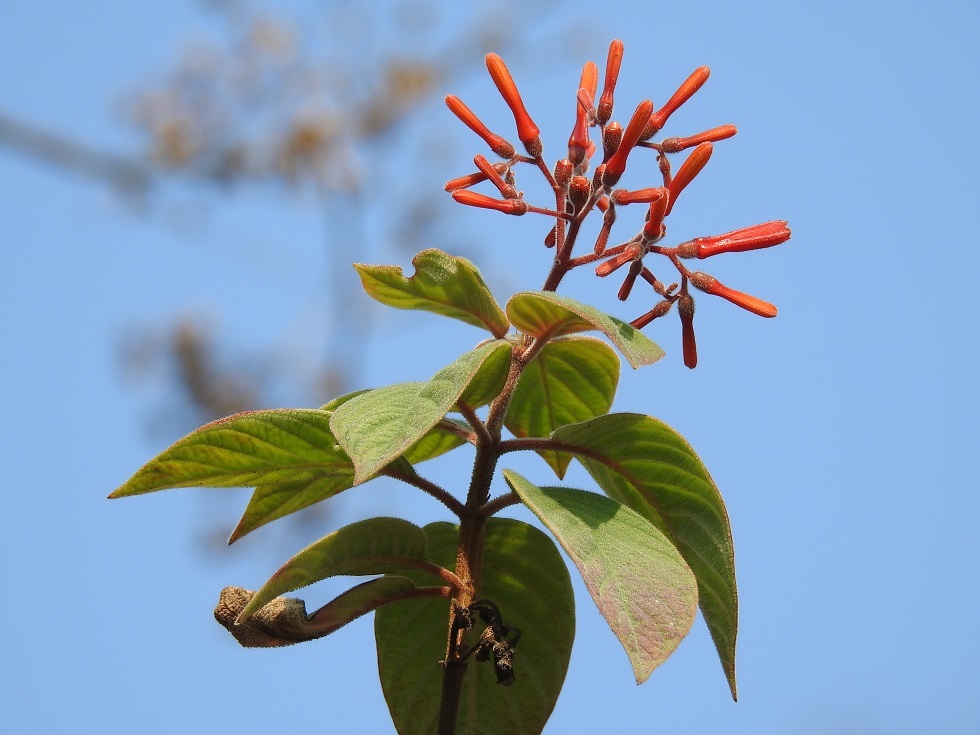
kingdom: Plantae
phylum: Tracheophyta
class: Magnoliopsida
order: Gentianales
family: Rubiaceae
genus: Hamelia
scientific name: Hamelia patens
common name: Redhead
